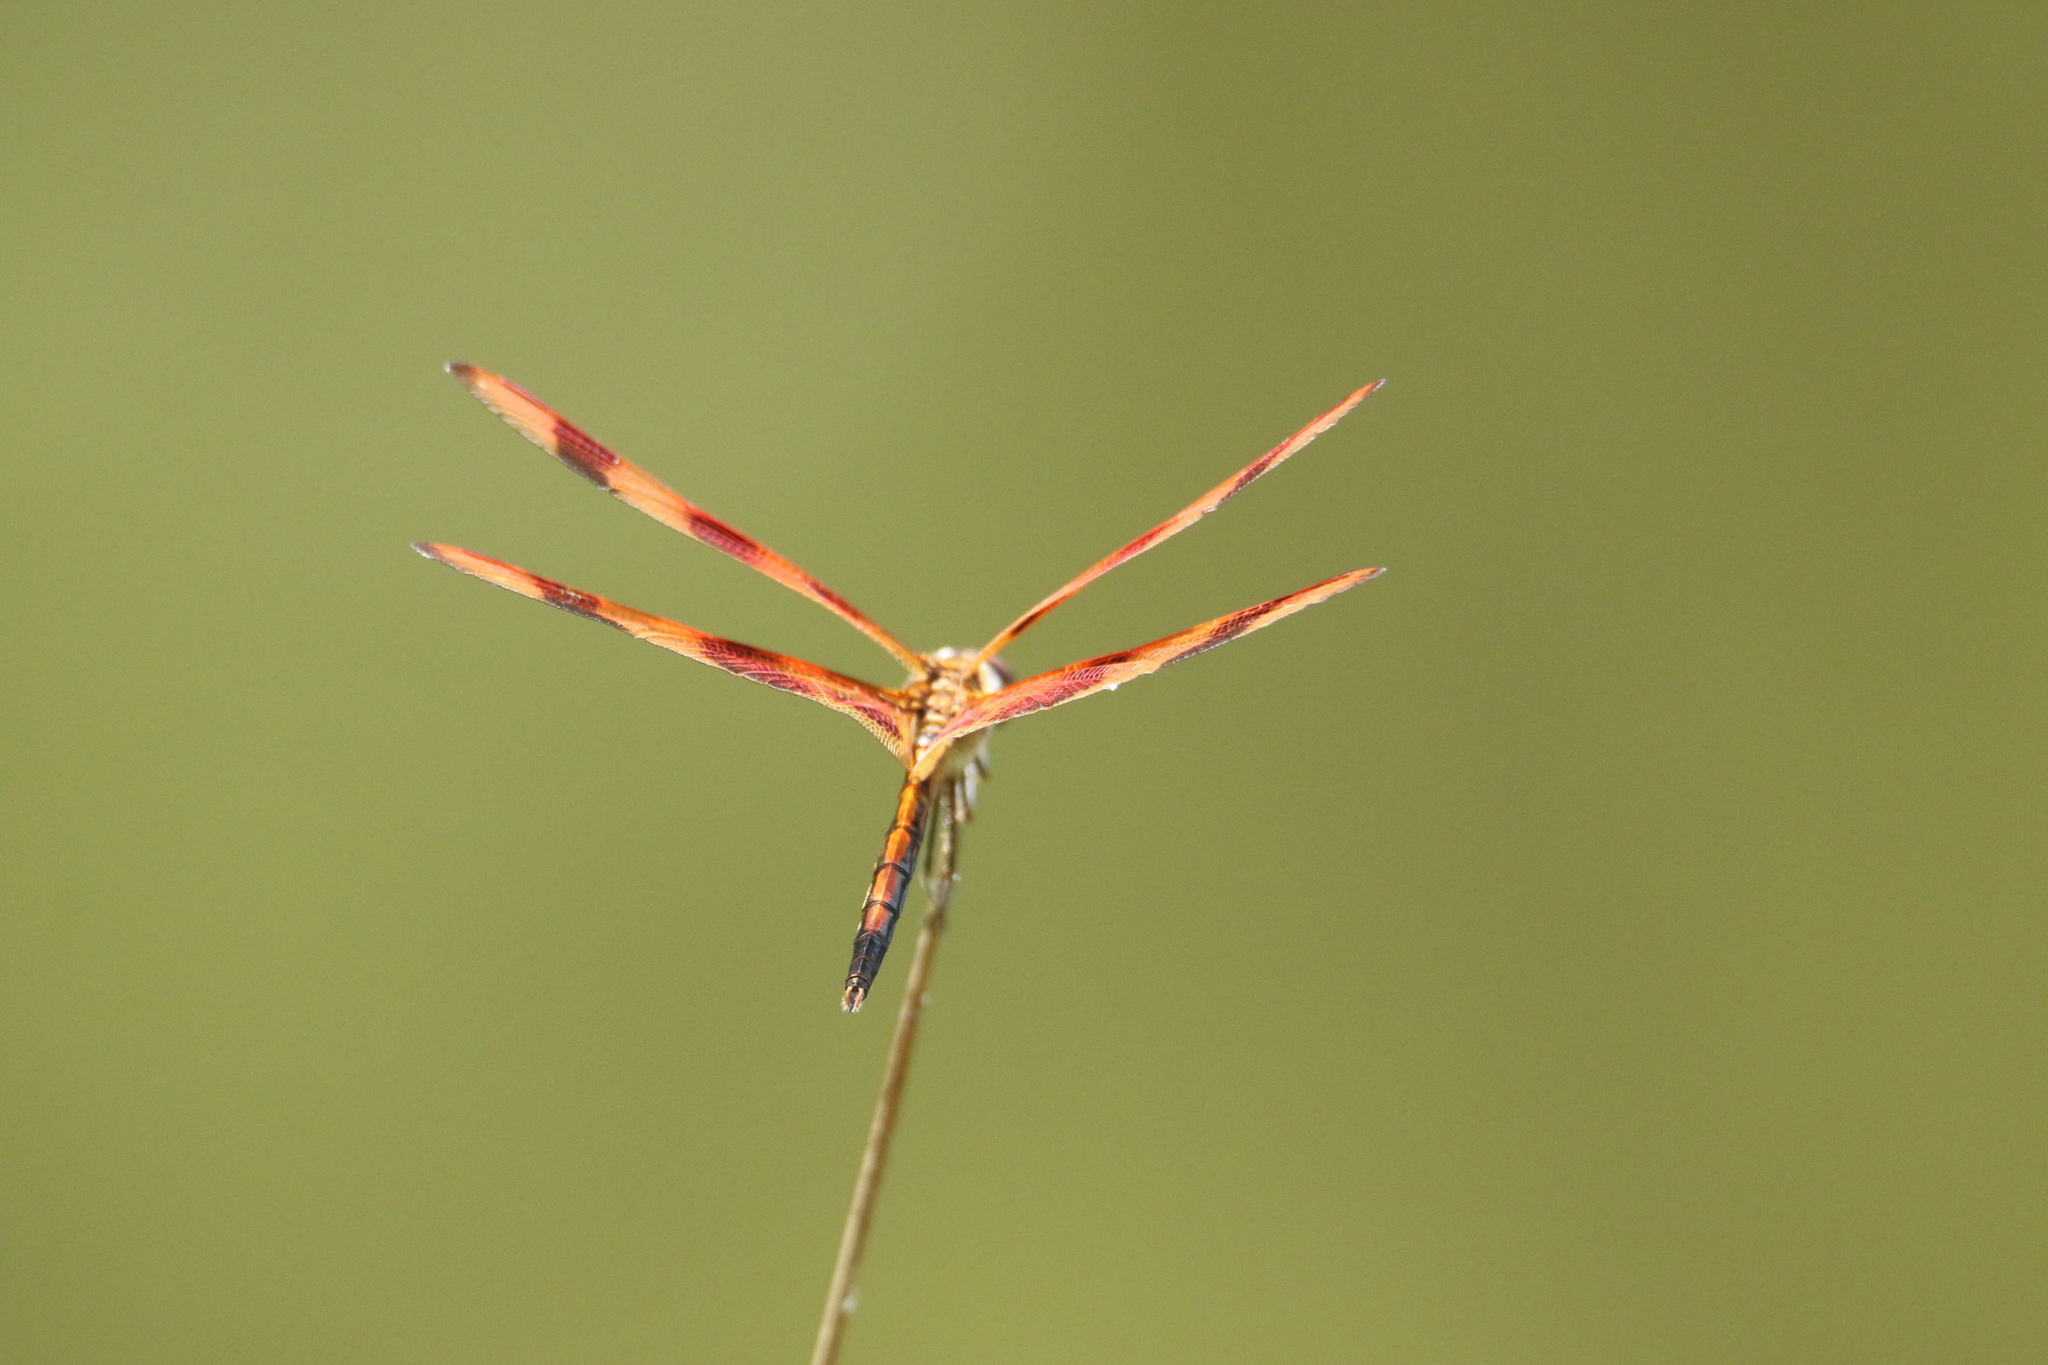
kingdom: Animalia
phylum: Arthropoda
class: Insecta
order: Odonata
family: Libellulidae
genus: Celithemis
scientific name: Celithemis eponina
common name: Halloween pennant
